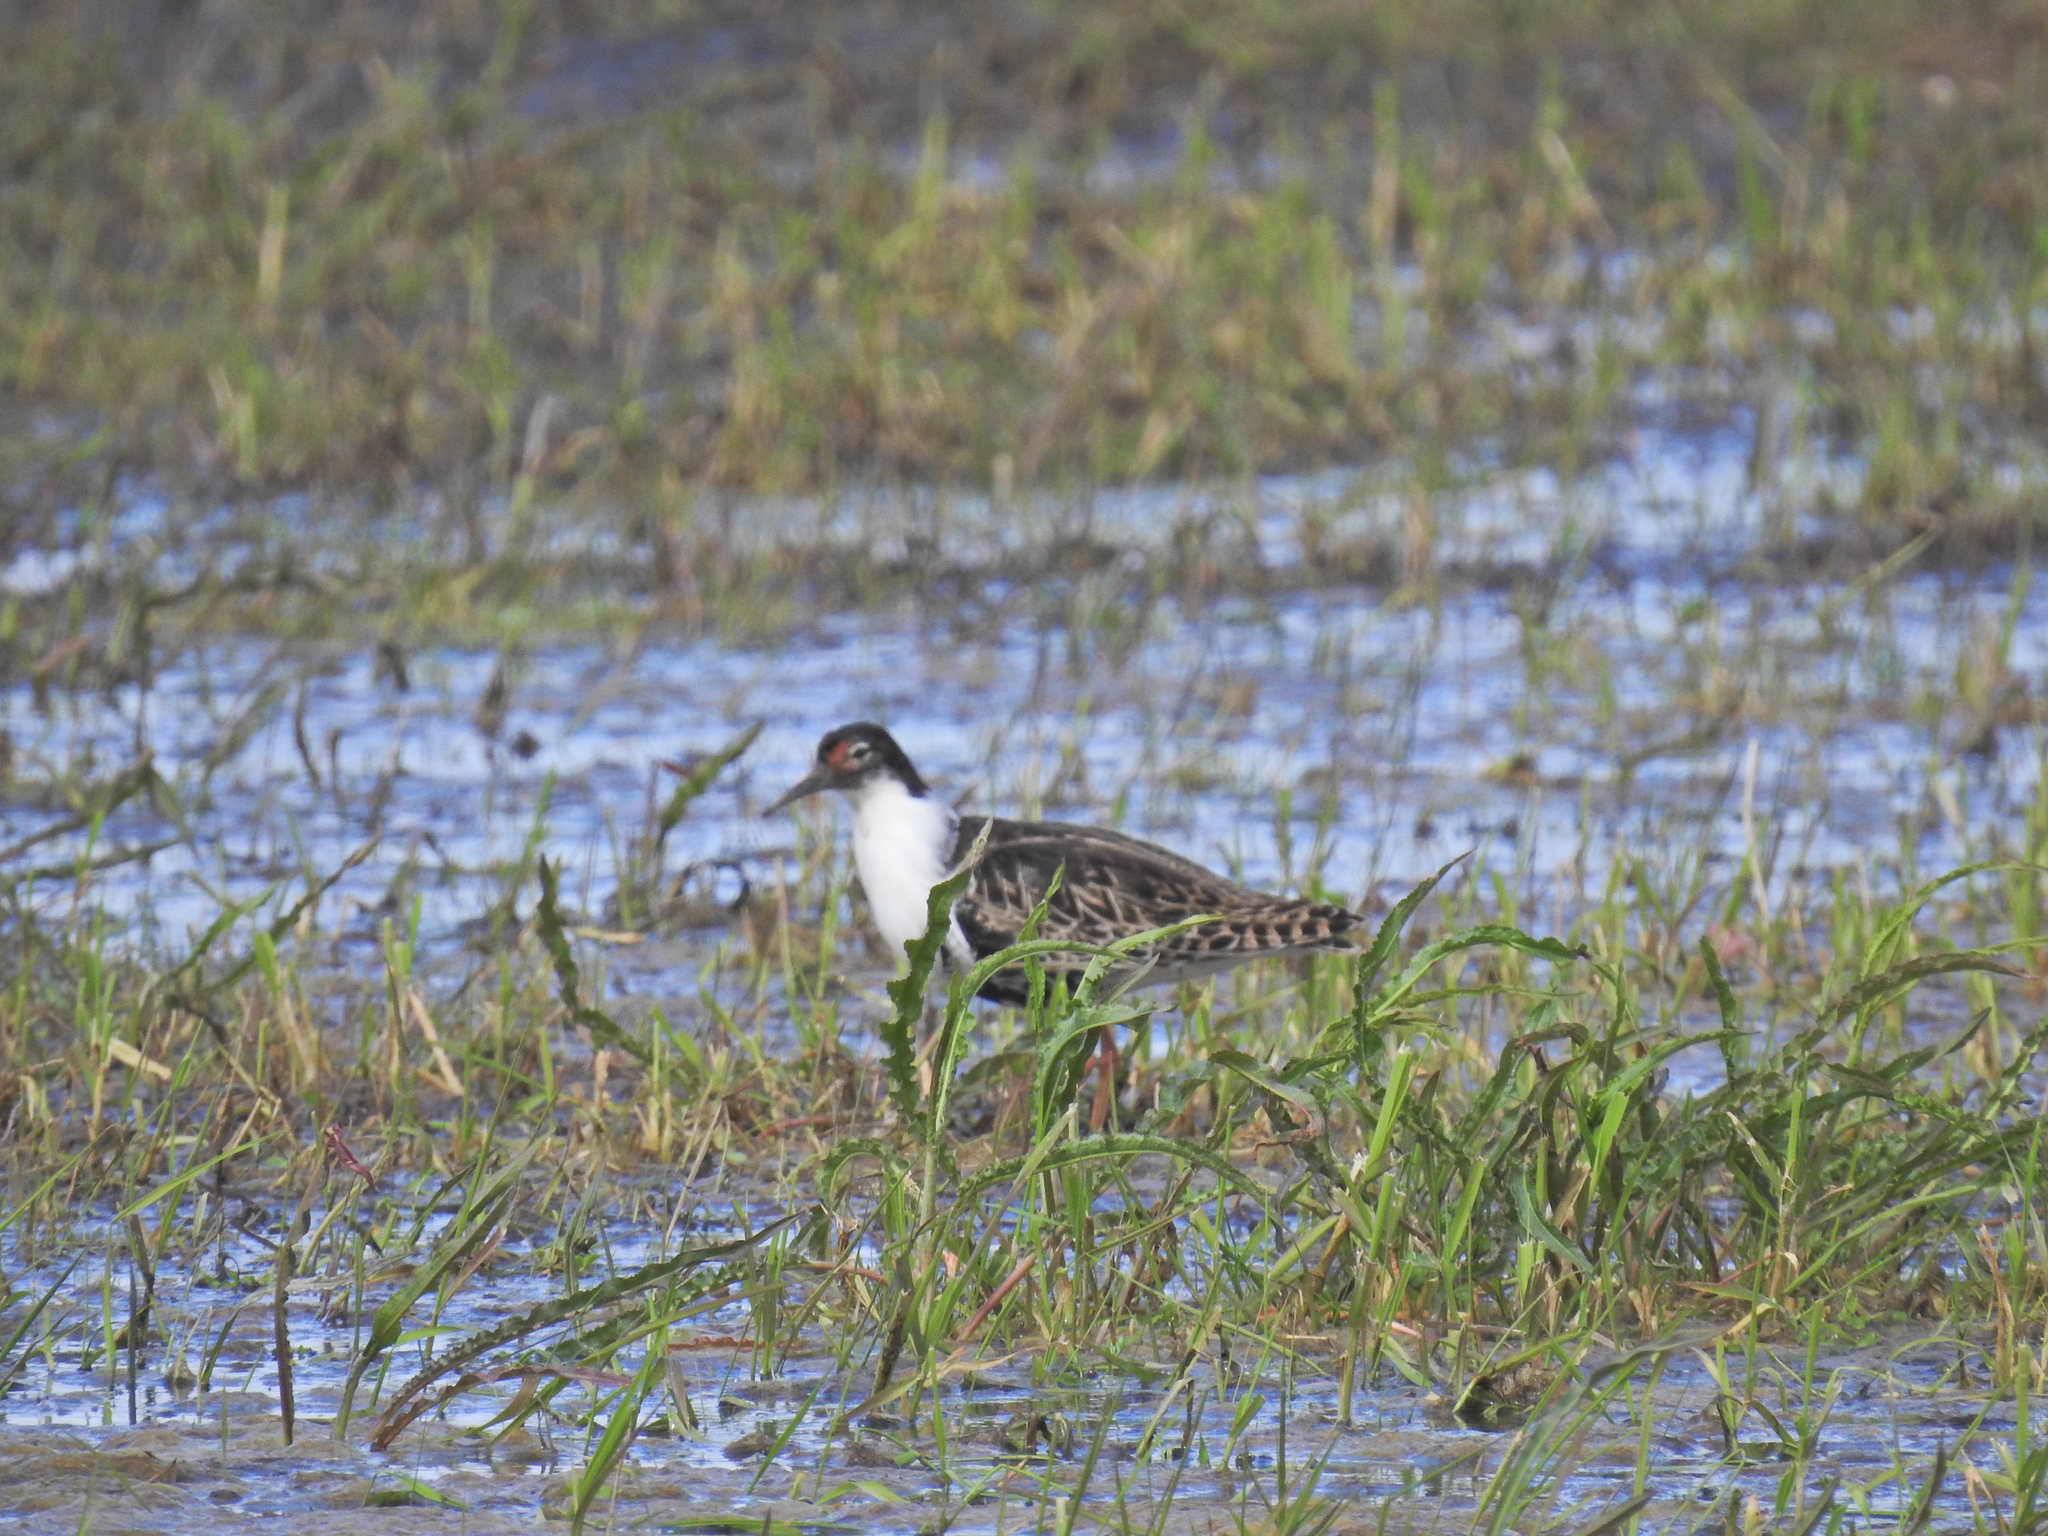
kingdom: Animalia
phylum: Chordata
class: Aves
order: Charadriiformes
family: Scolopacidae
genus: Calidris
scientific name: Calidris pugnax
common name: Ruff
